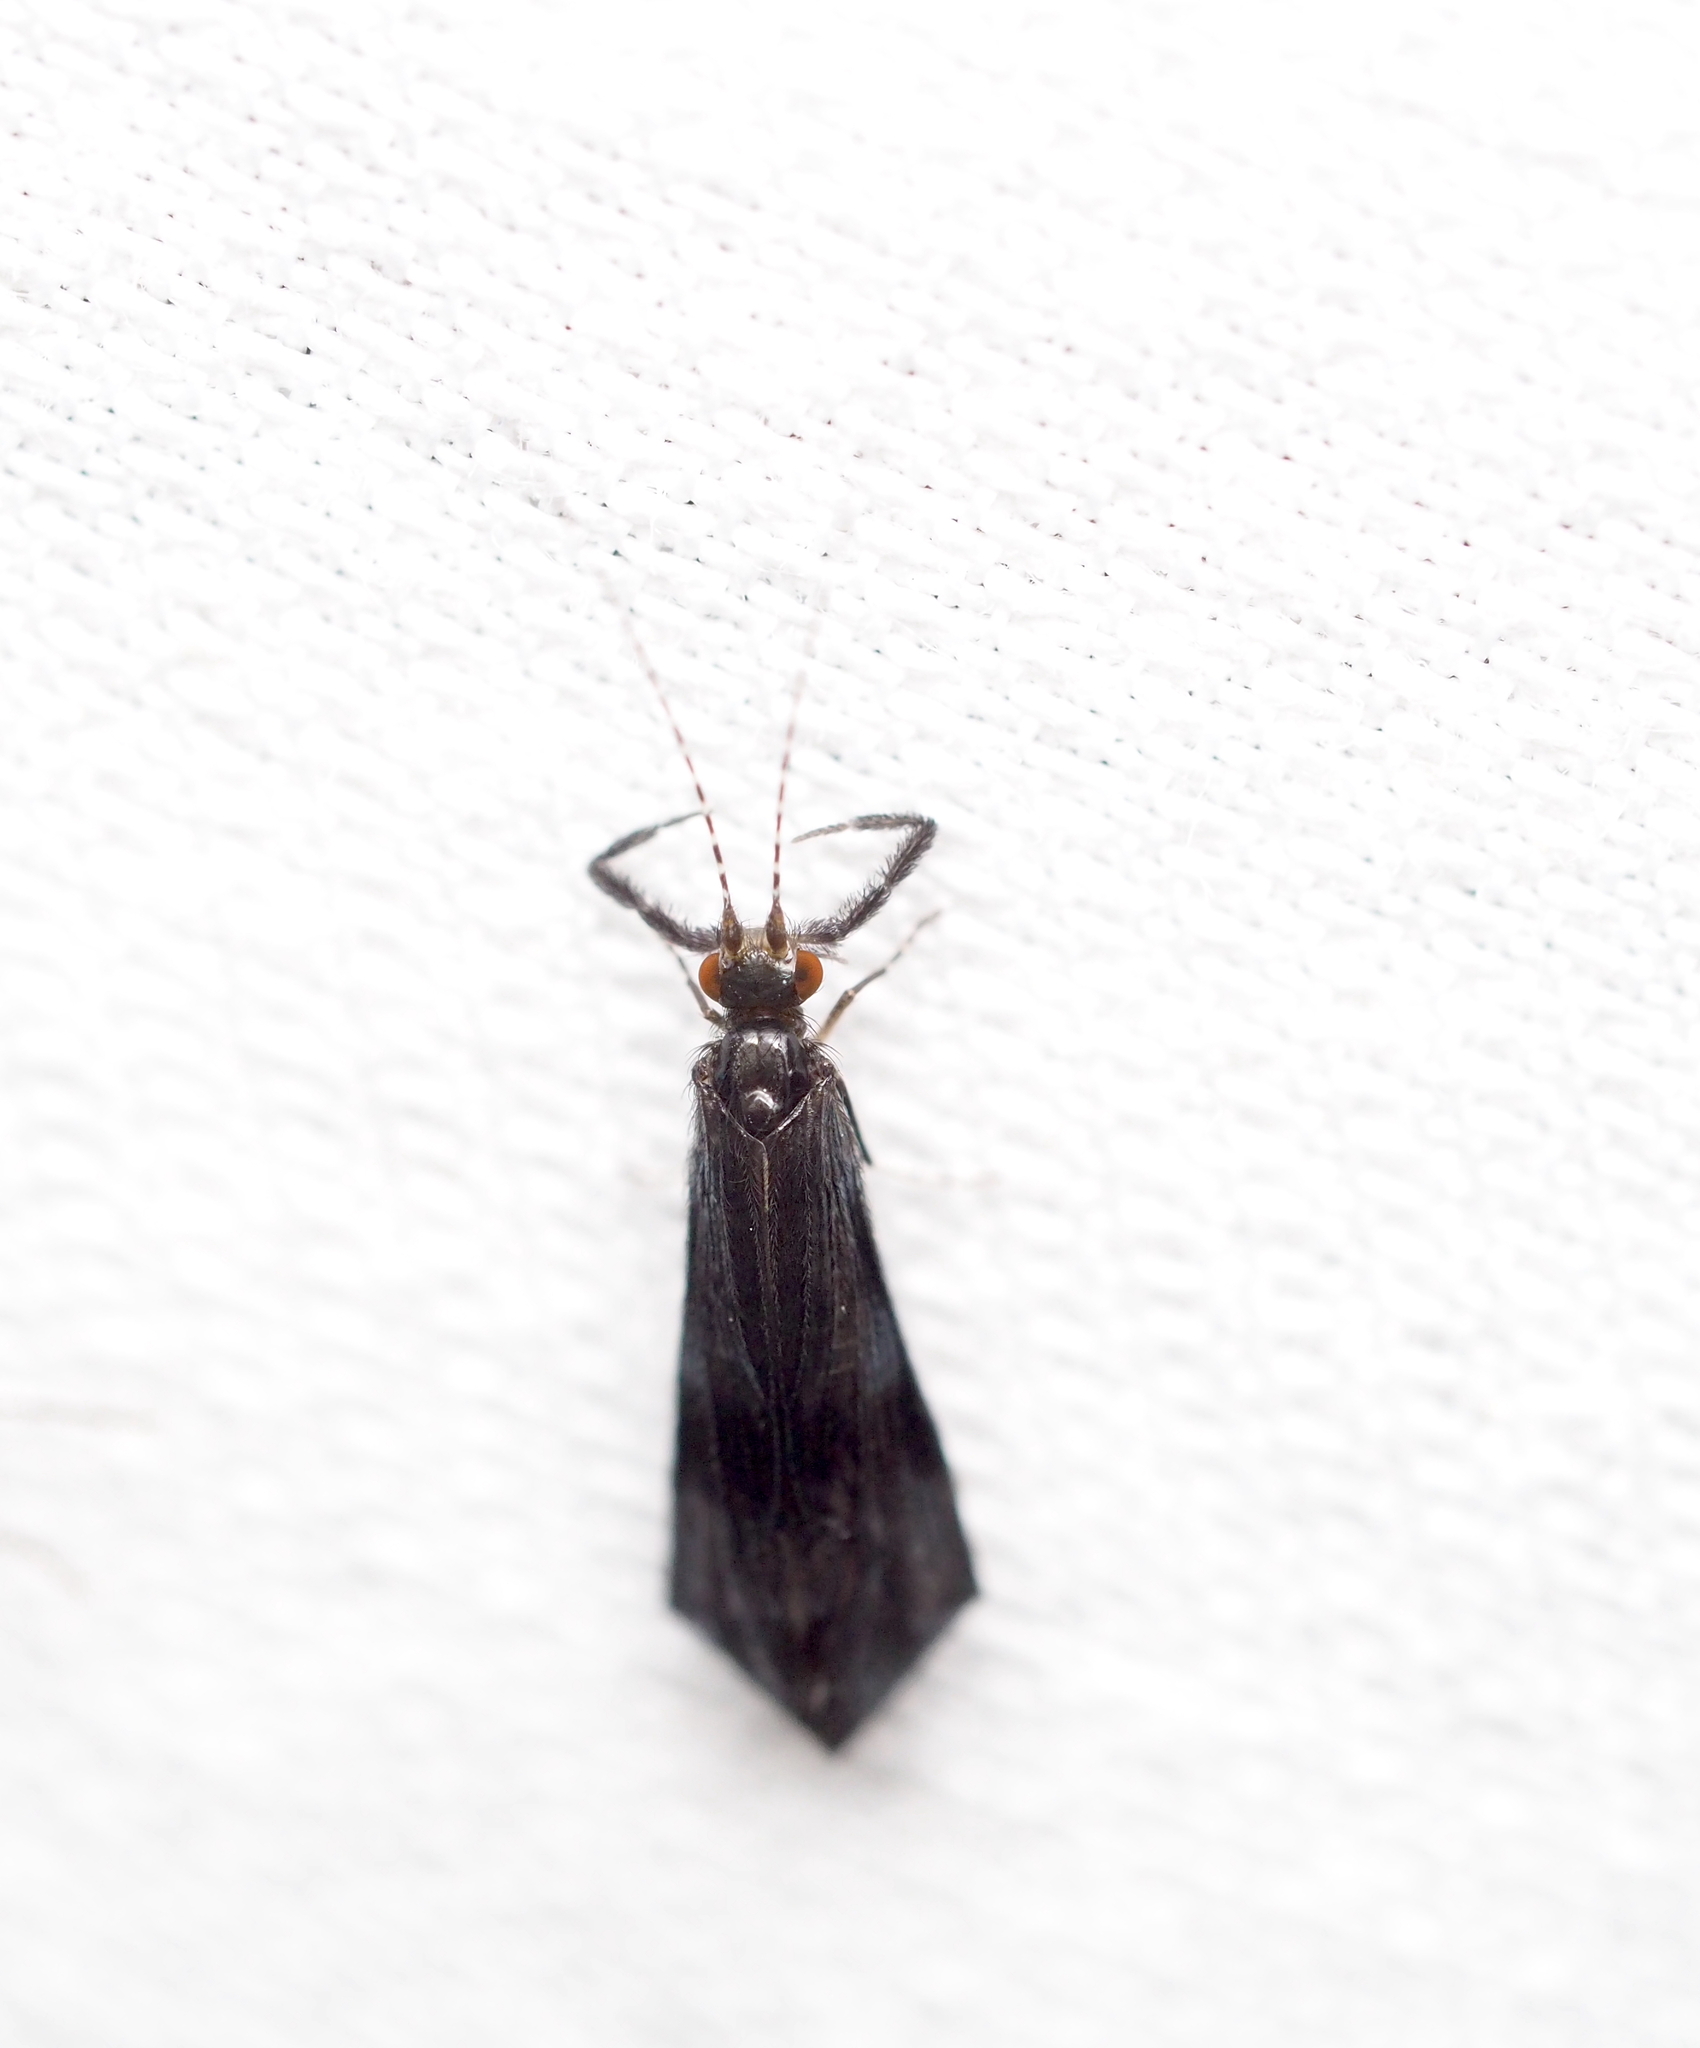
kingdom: Animalia
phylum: Arthropoda
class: Insecta
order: Trichoptera
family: Leptoceridae
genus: Mystacides
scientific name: Mystacides azureus
